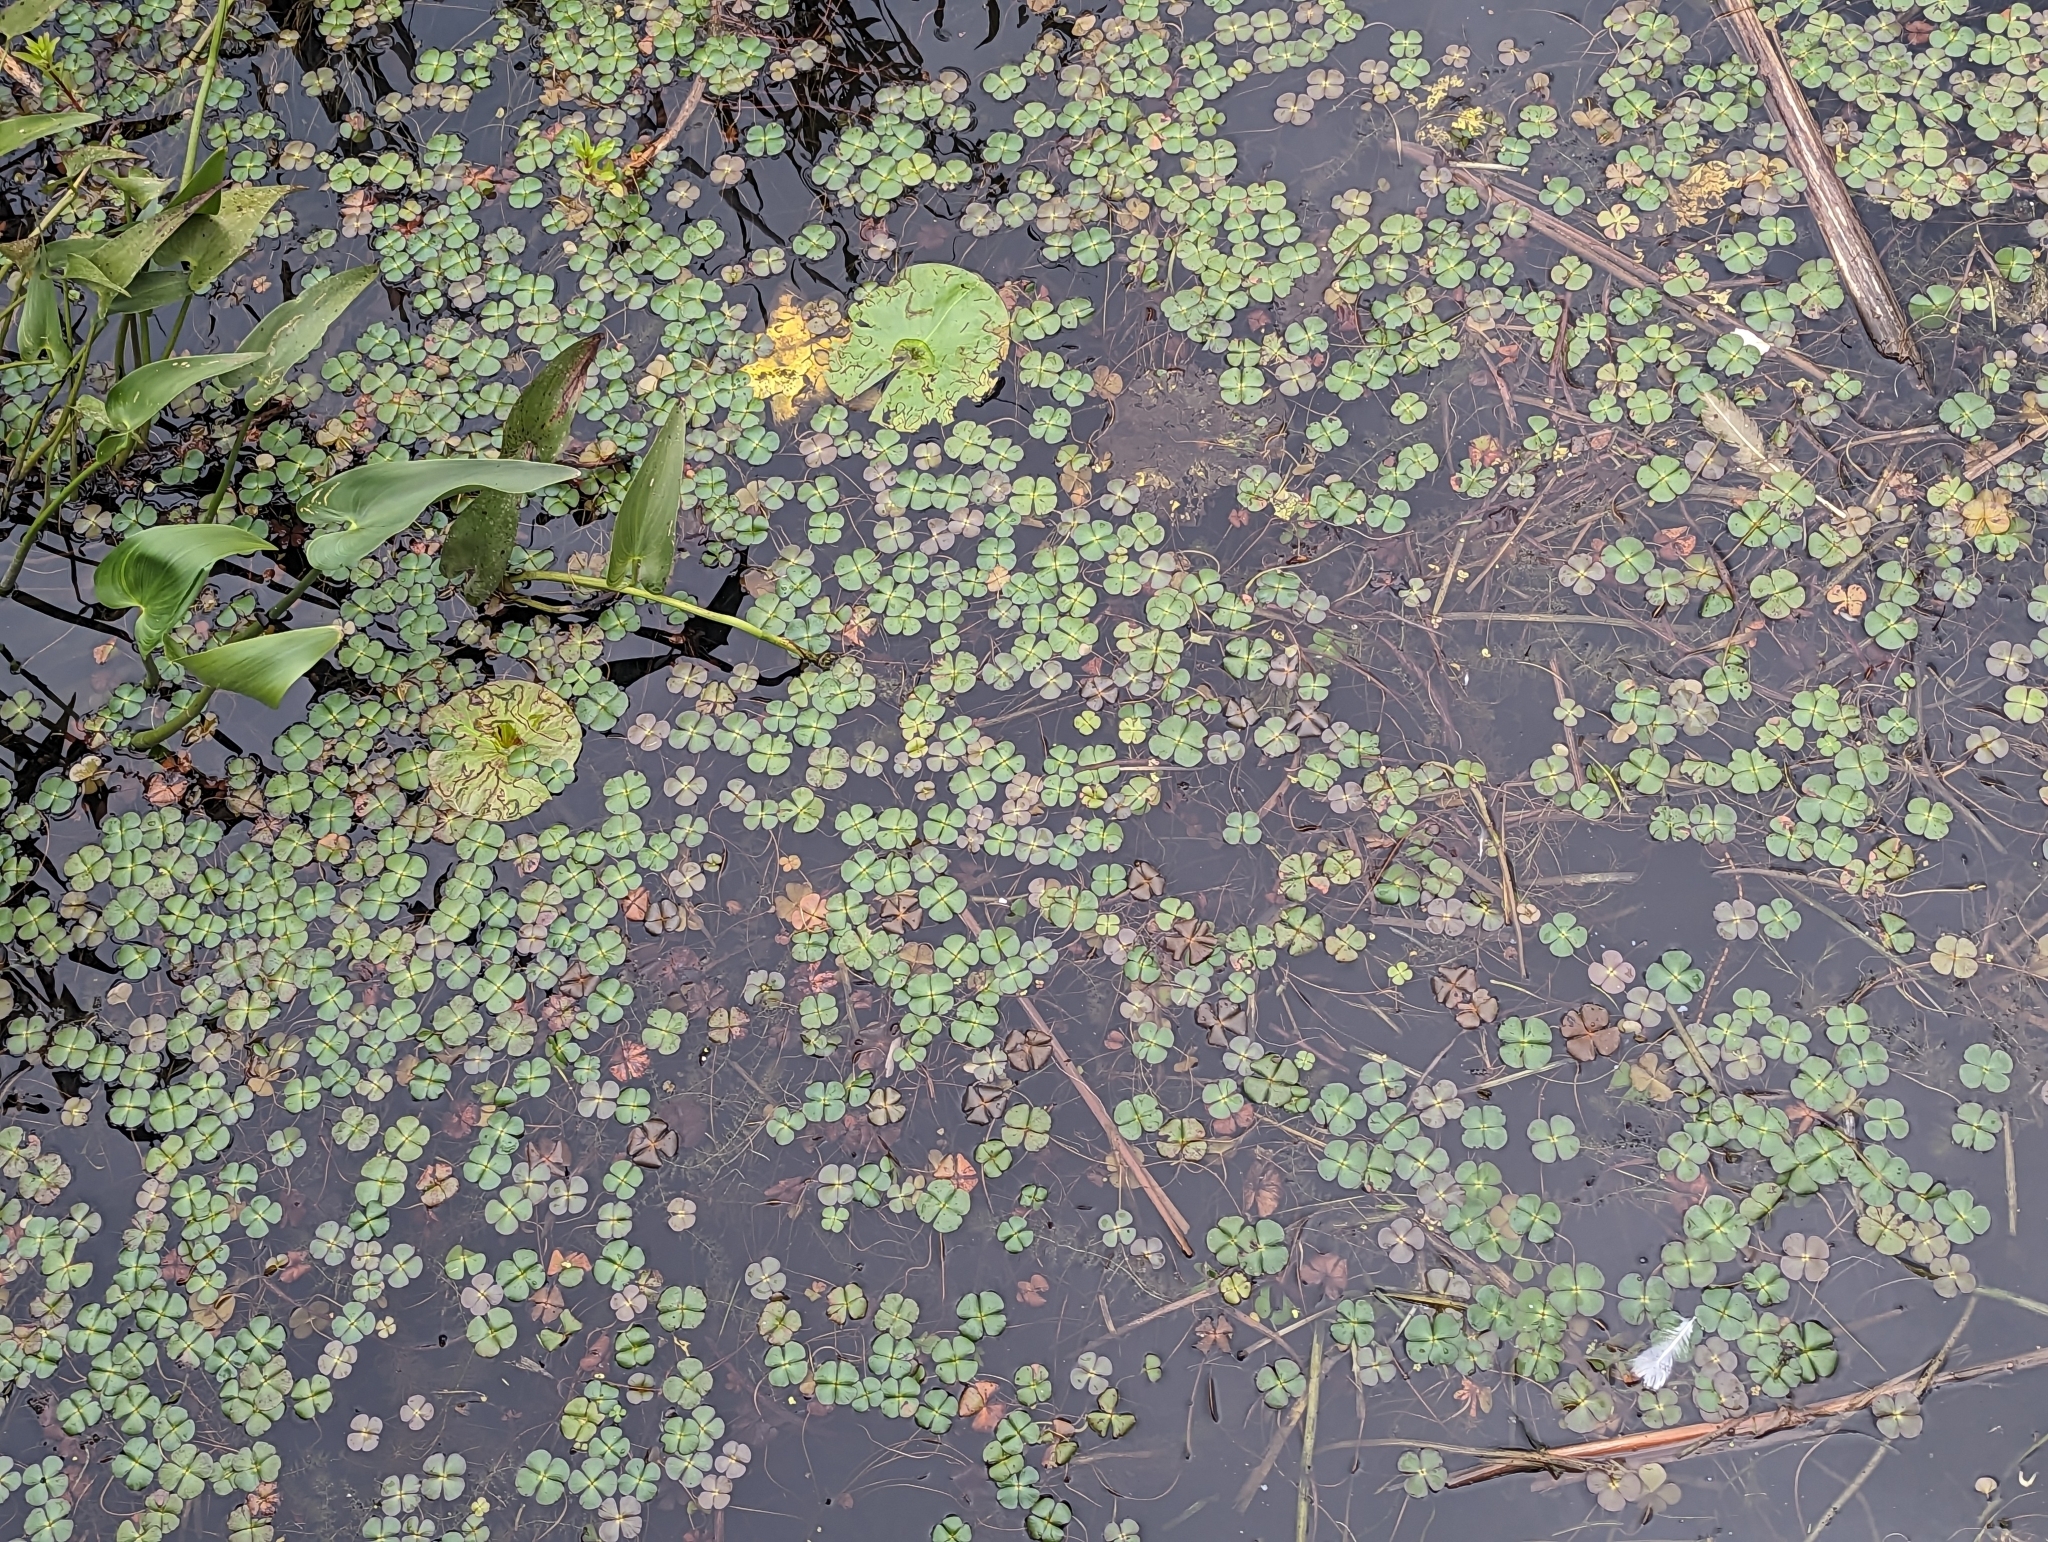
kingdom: Plantae
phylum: Tracheophyta
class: Polypodiopsida
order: Salviniales
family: Marsileaceae
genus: Marsilea
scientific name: Marsilea quadrifolia
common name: Water shamrock
